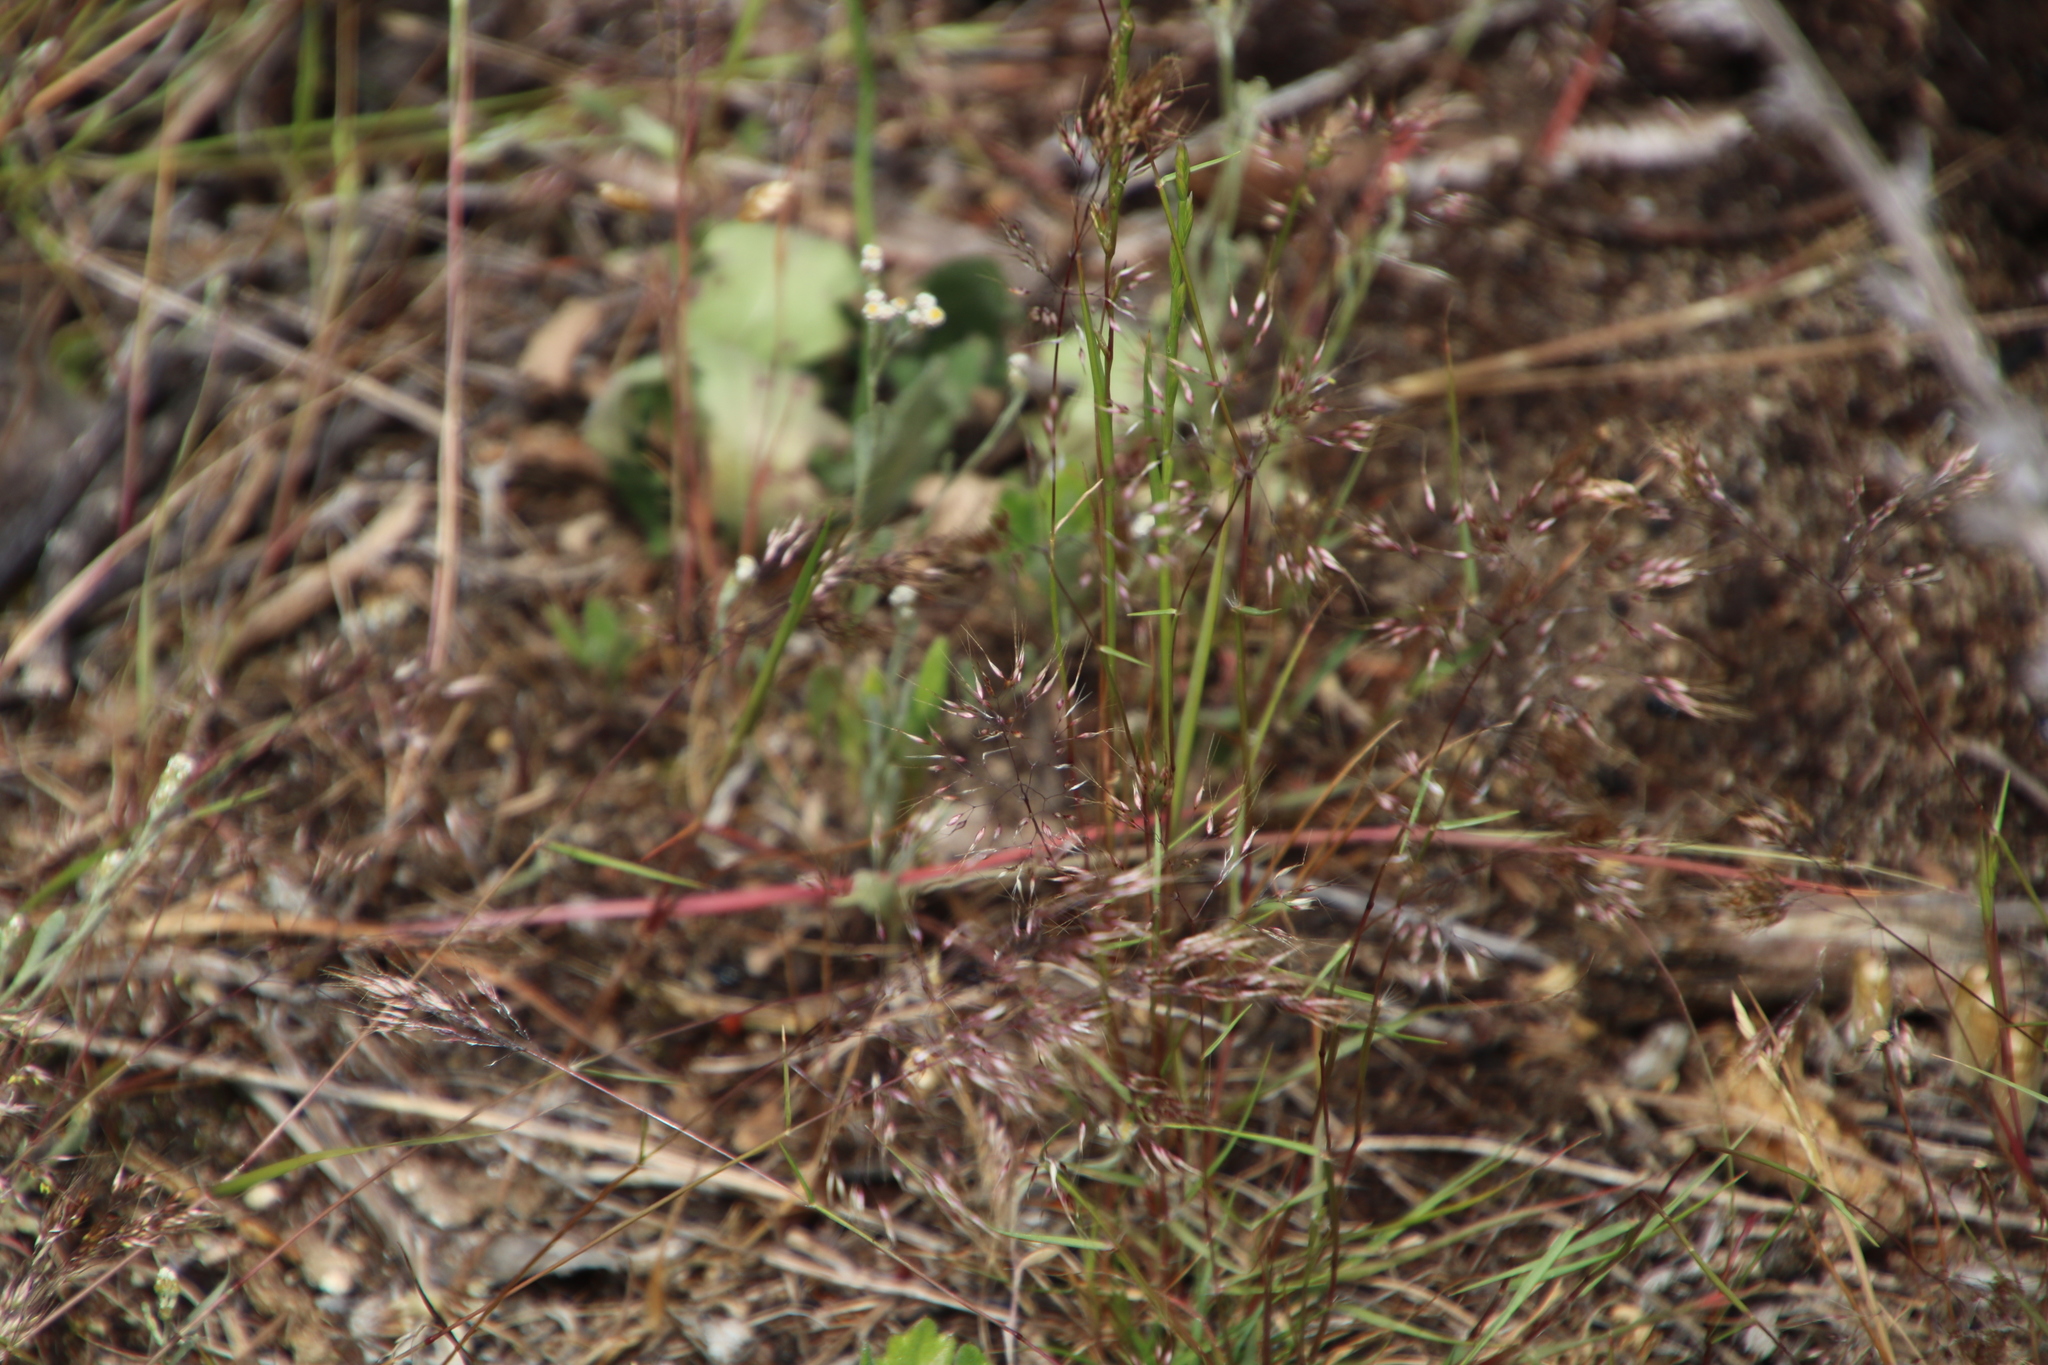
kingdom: Plantae
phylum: Tracheophyta
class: Liliopsida
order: Poales
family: Poaceae
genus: Pentameris
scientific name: Pentameris airoides
